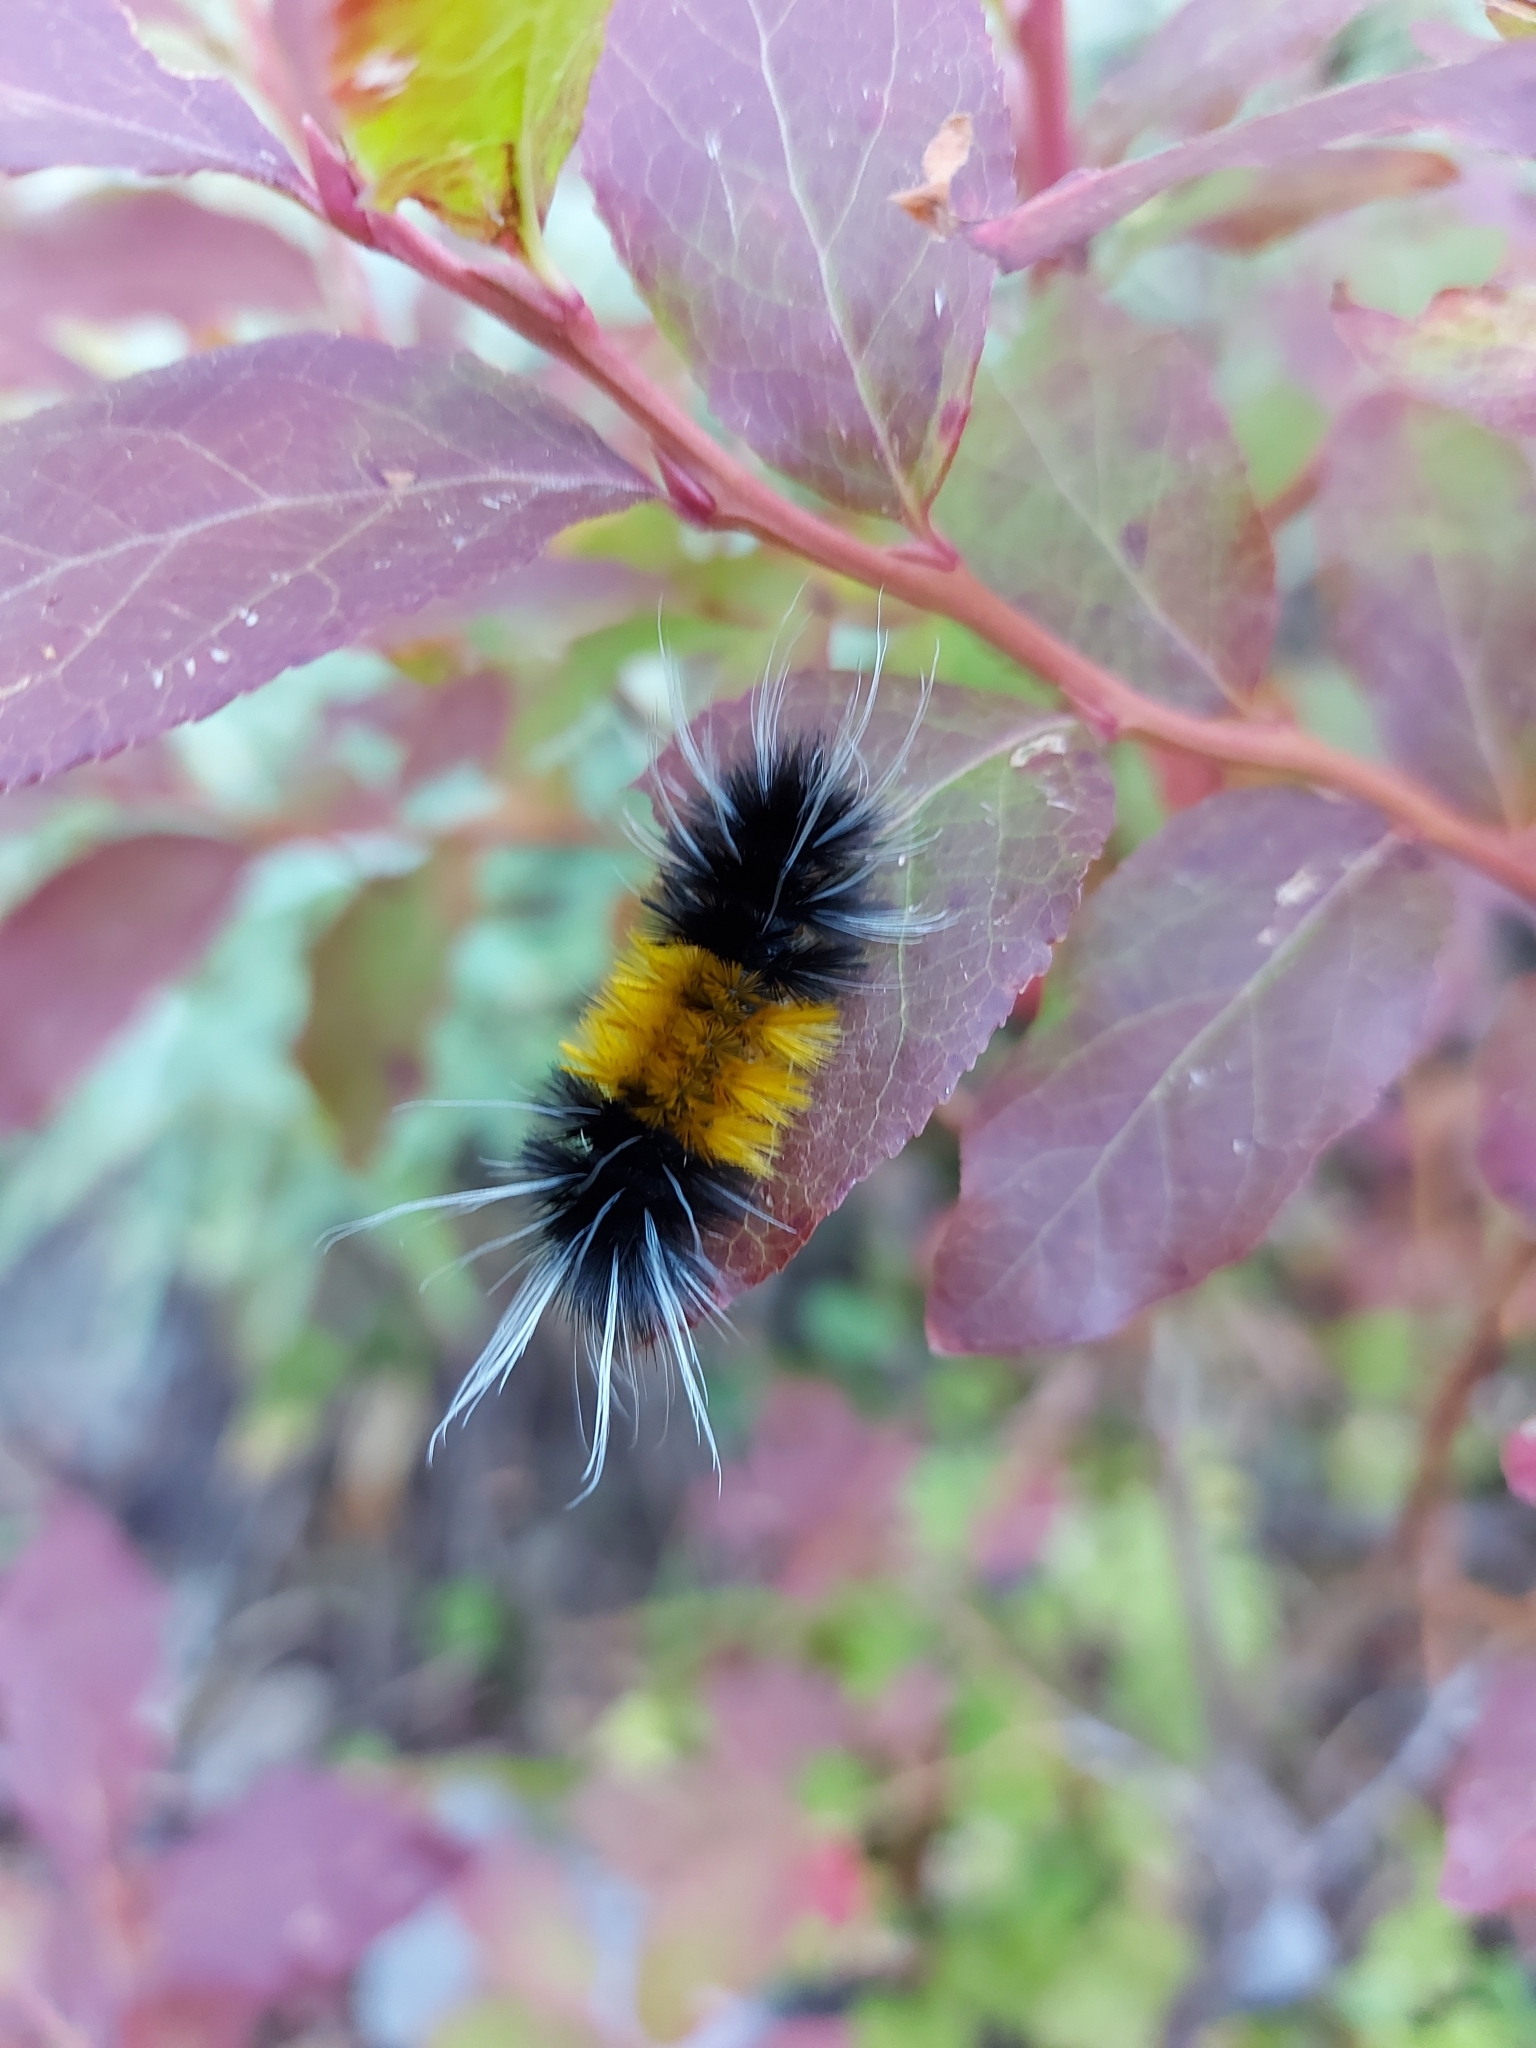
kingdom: Animalia
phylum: Arthropoda
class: Insecta
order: Lepidoptera
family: Erebidae
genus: Lophocampa
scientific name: Lophocampa maculata
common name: Spotted tussock moth
